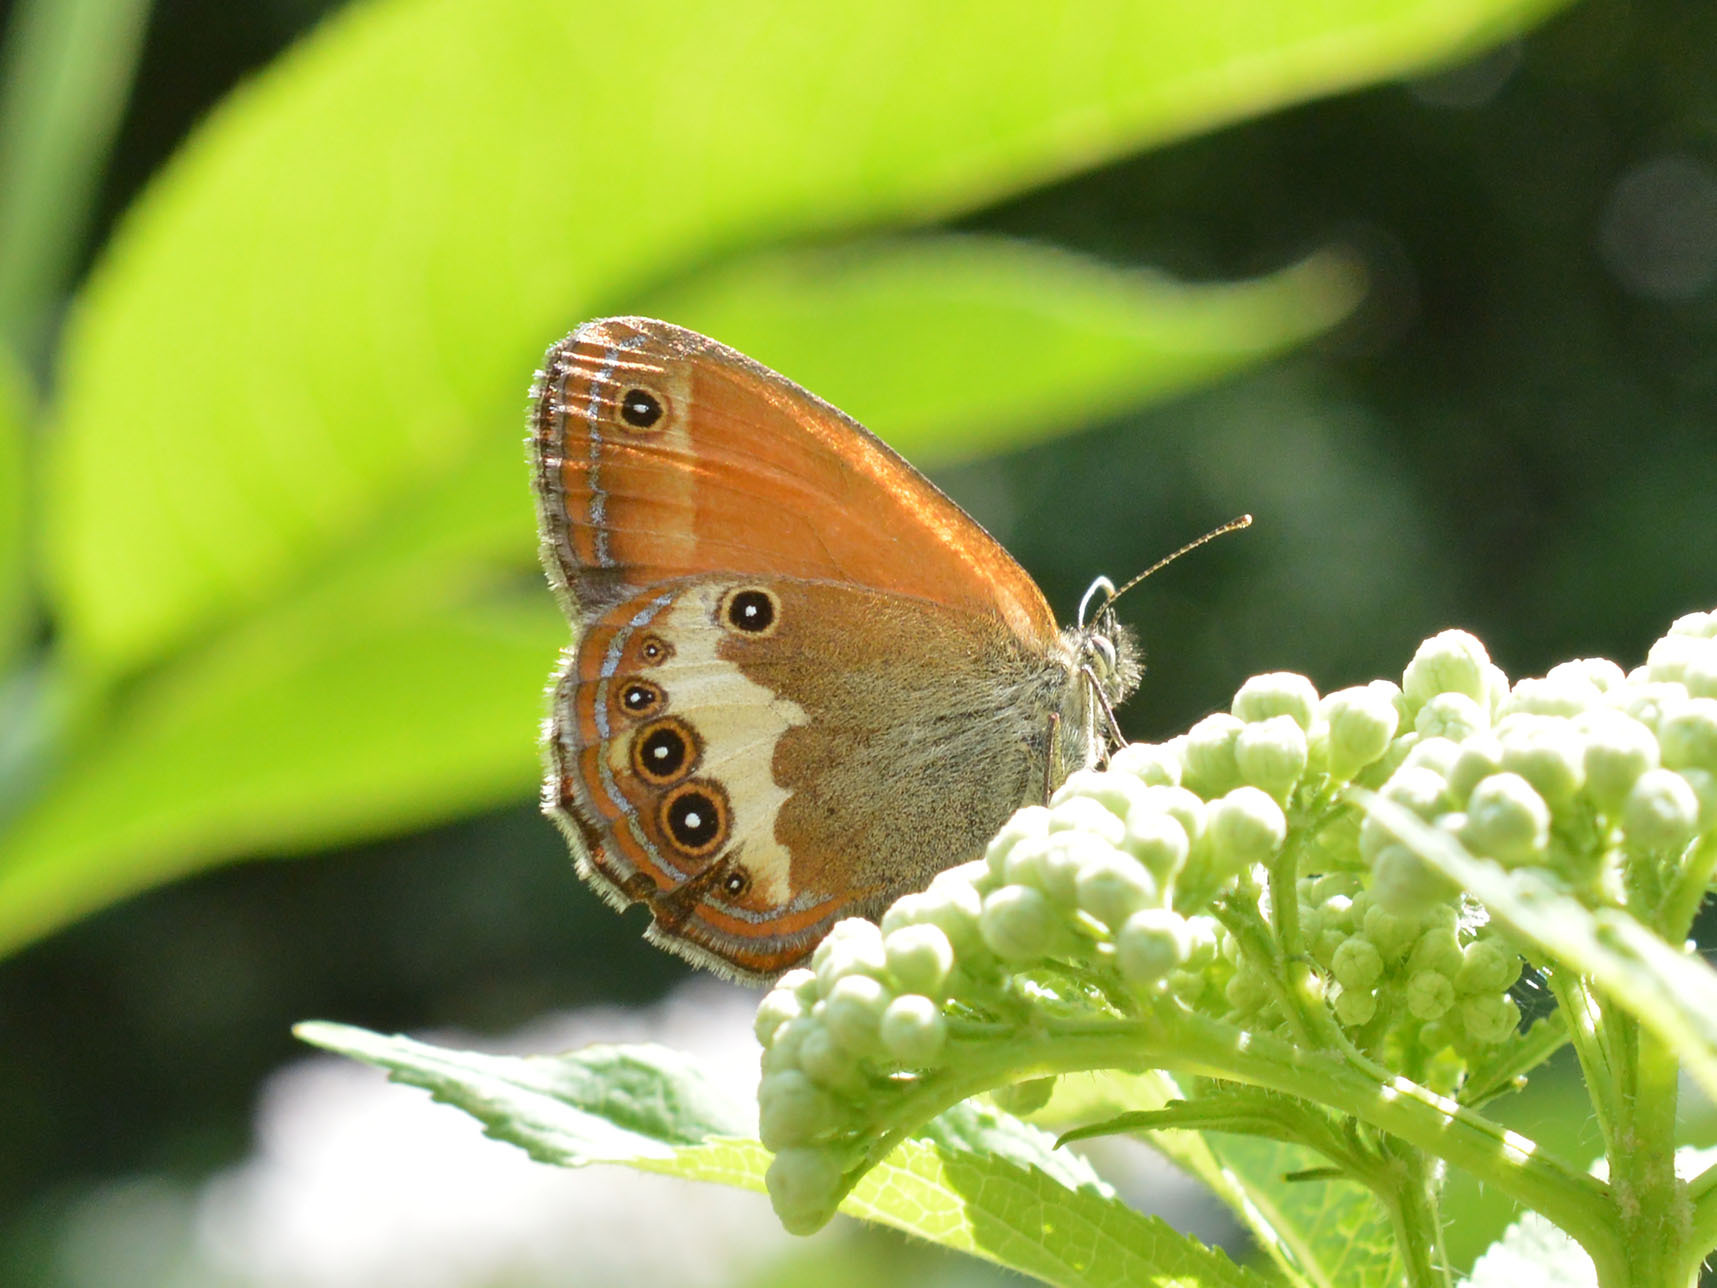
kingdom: Animalia
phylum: Arthropoda
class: Insecta
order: Lepidoptera
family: Nymphalidae
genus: Coenonympha
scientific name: Coenonympha arcania
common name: Pearly heath
